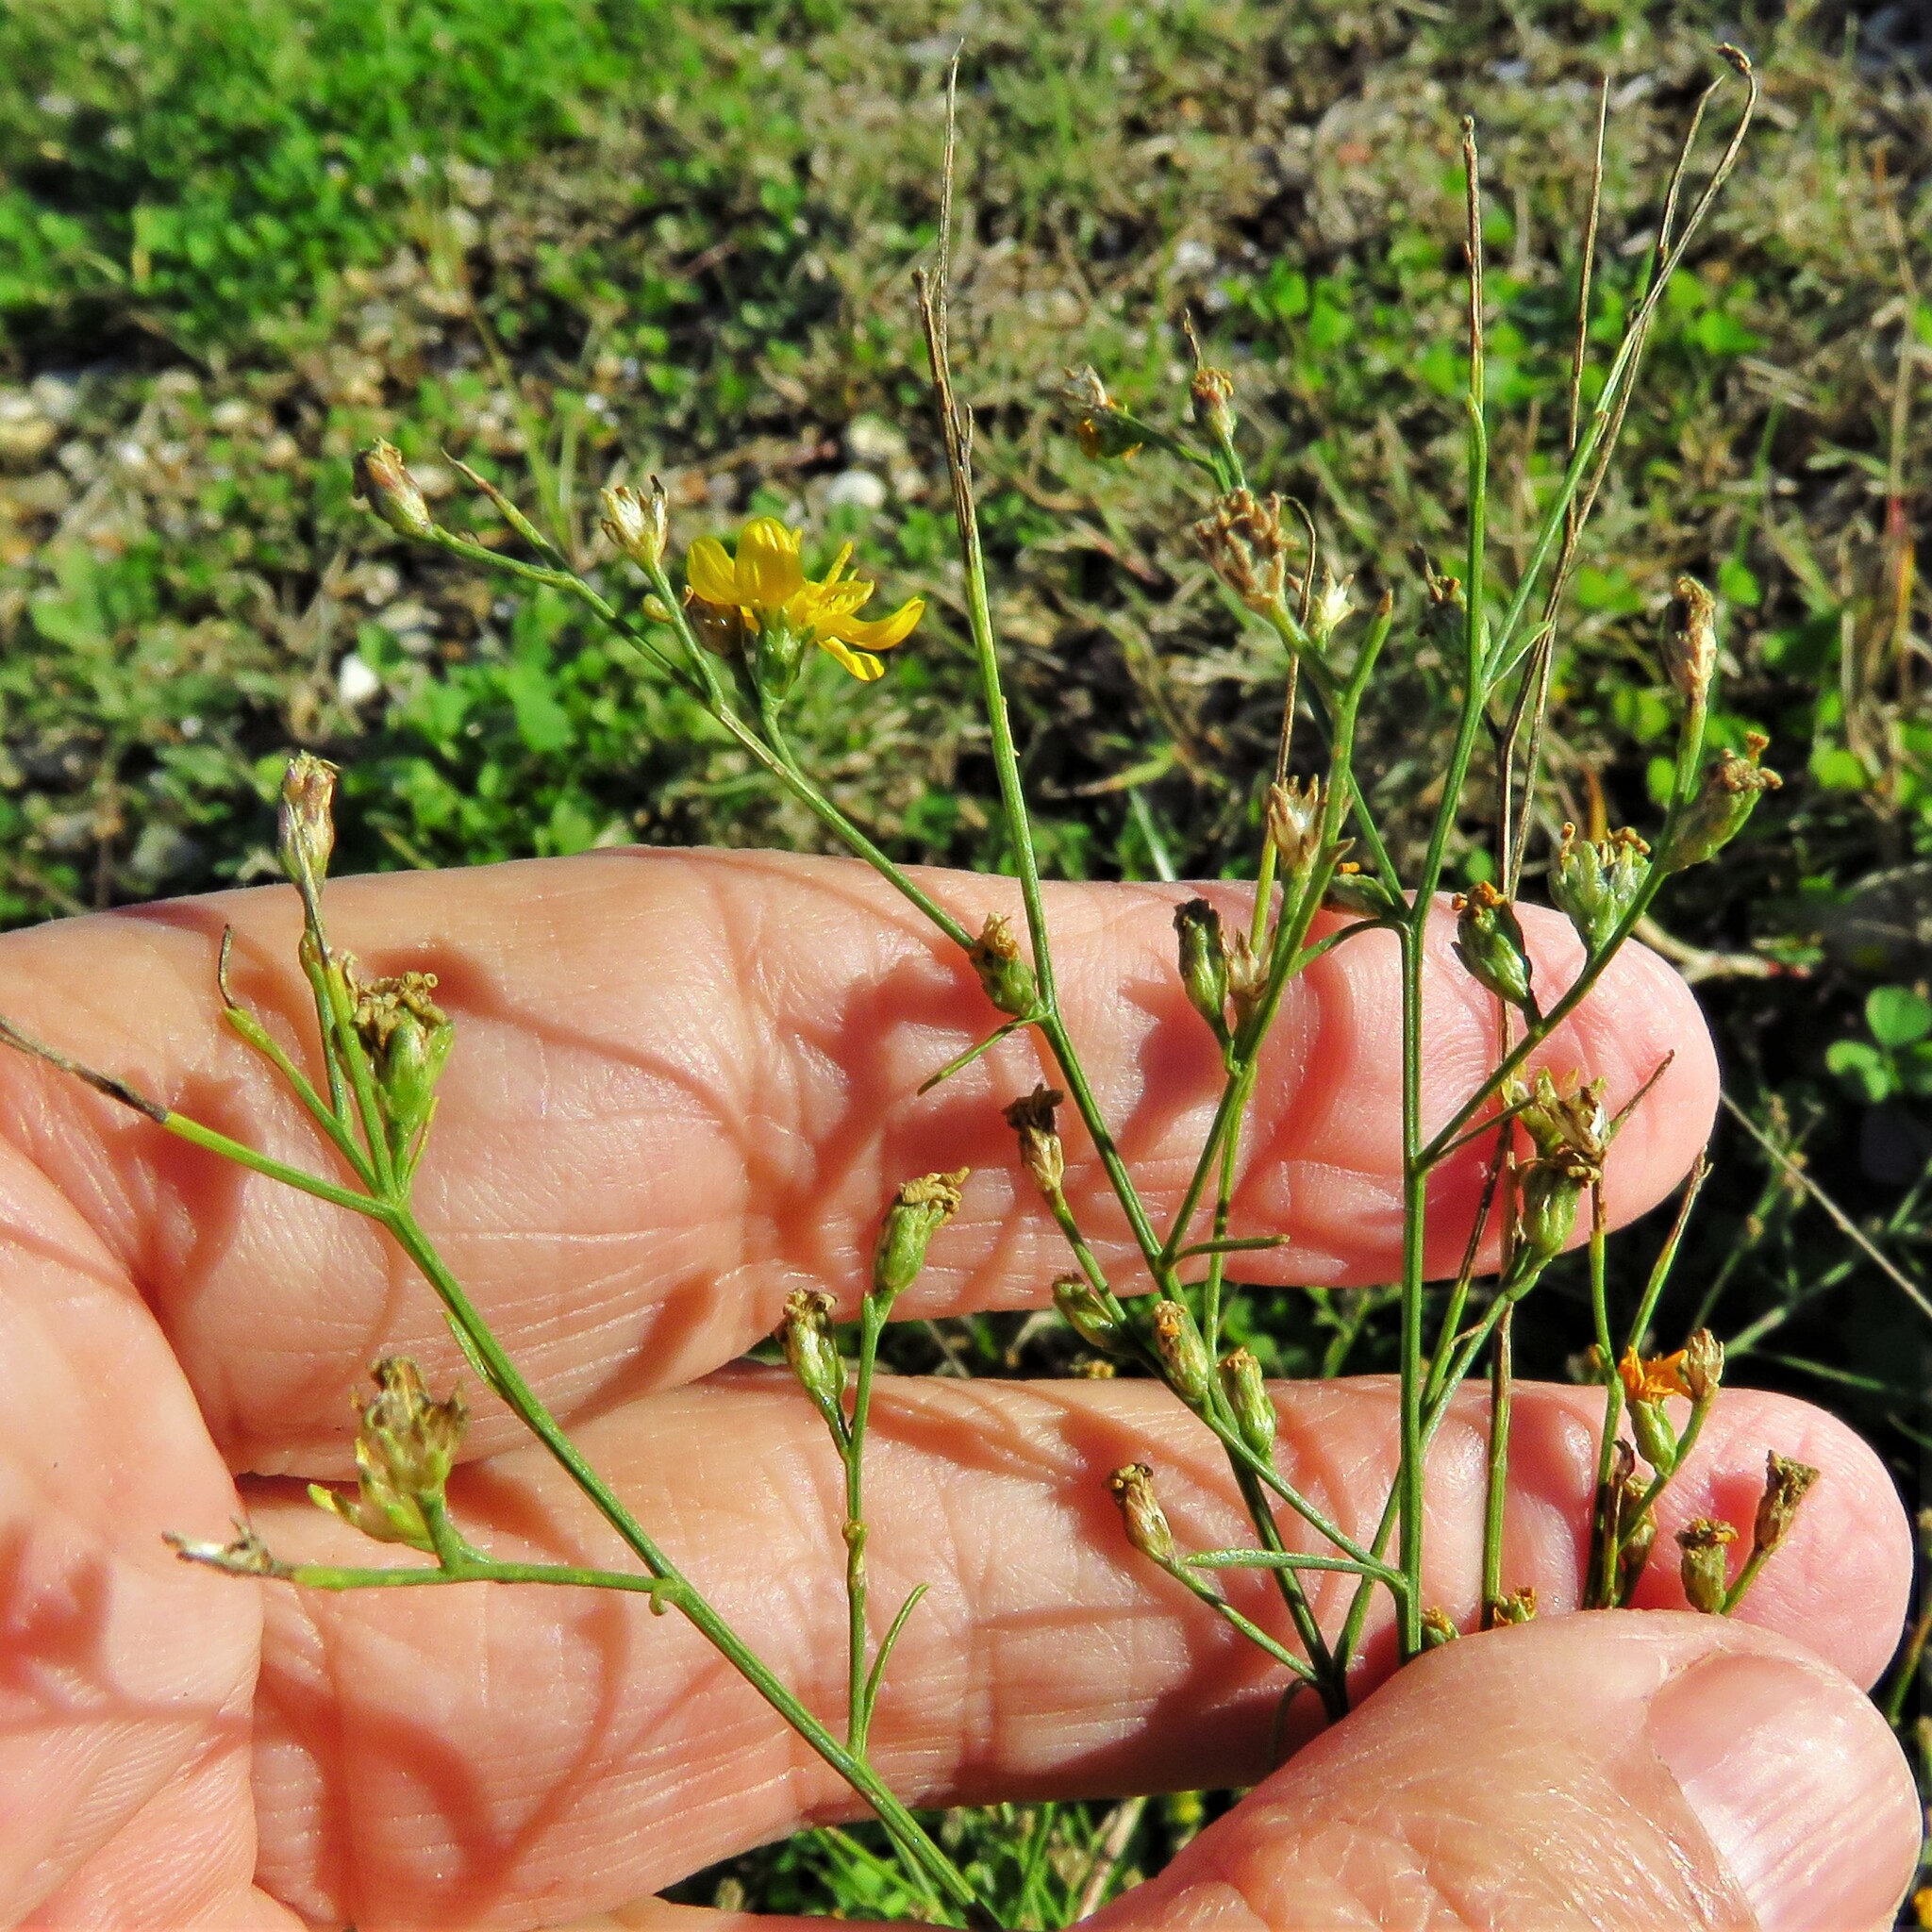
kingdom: Plantae
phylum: Tracheophyta
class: Magnoliopsida
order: Asterales
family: Asteraceae
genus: Gutierrezia
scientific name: Gutierrezia texana
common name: Texas snakeweed
